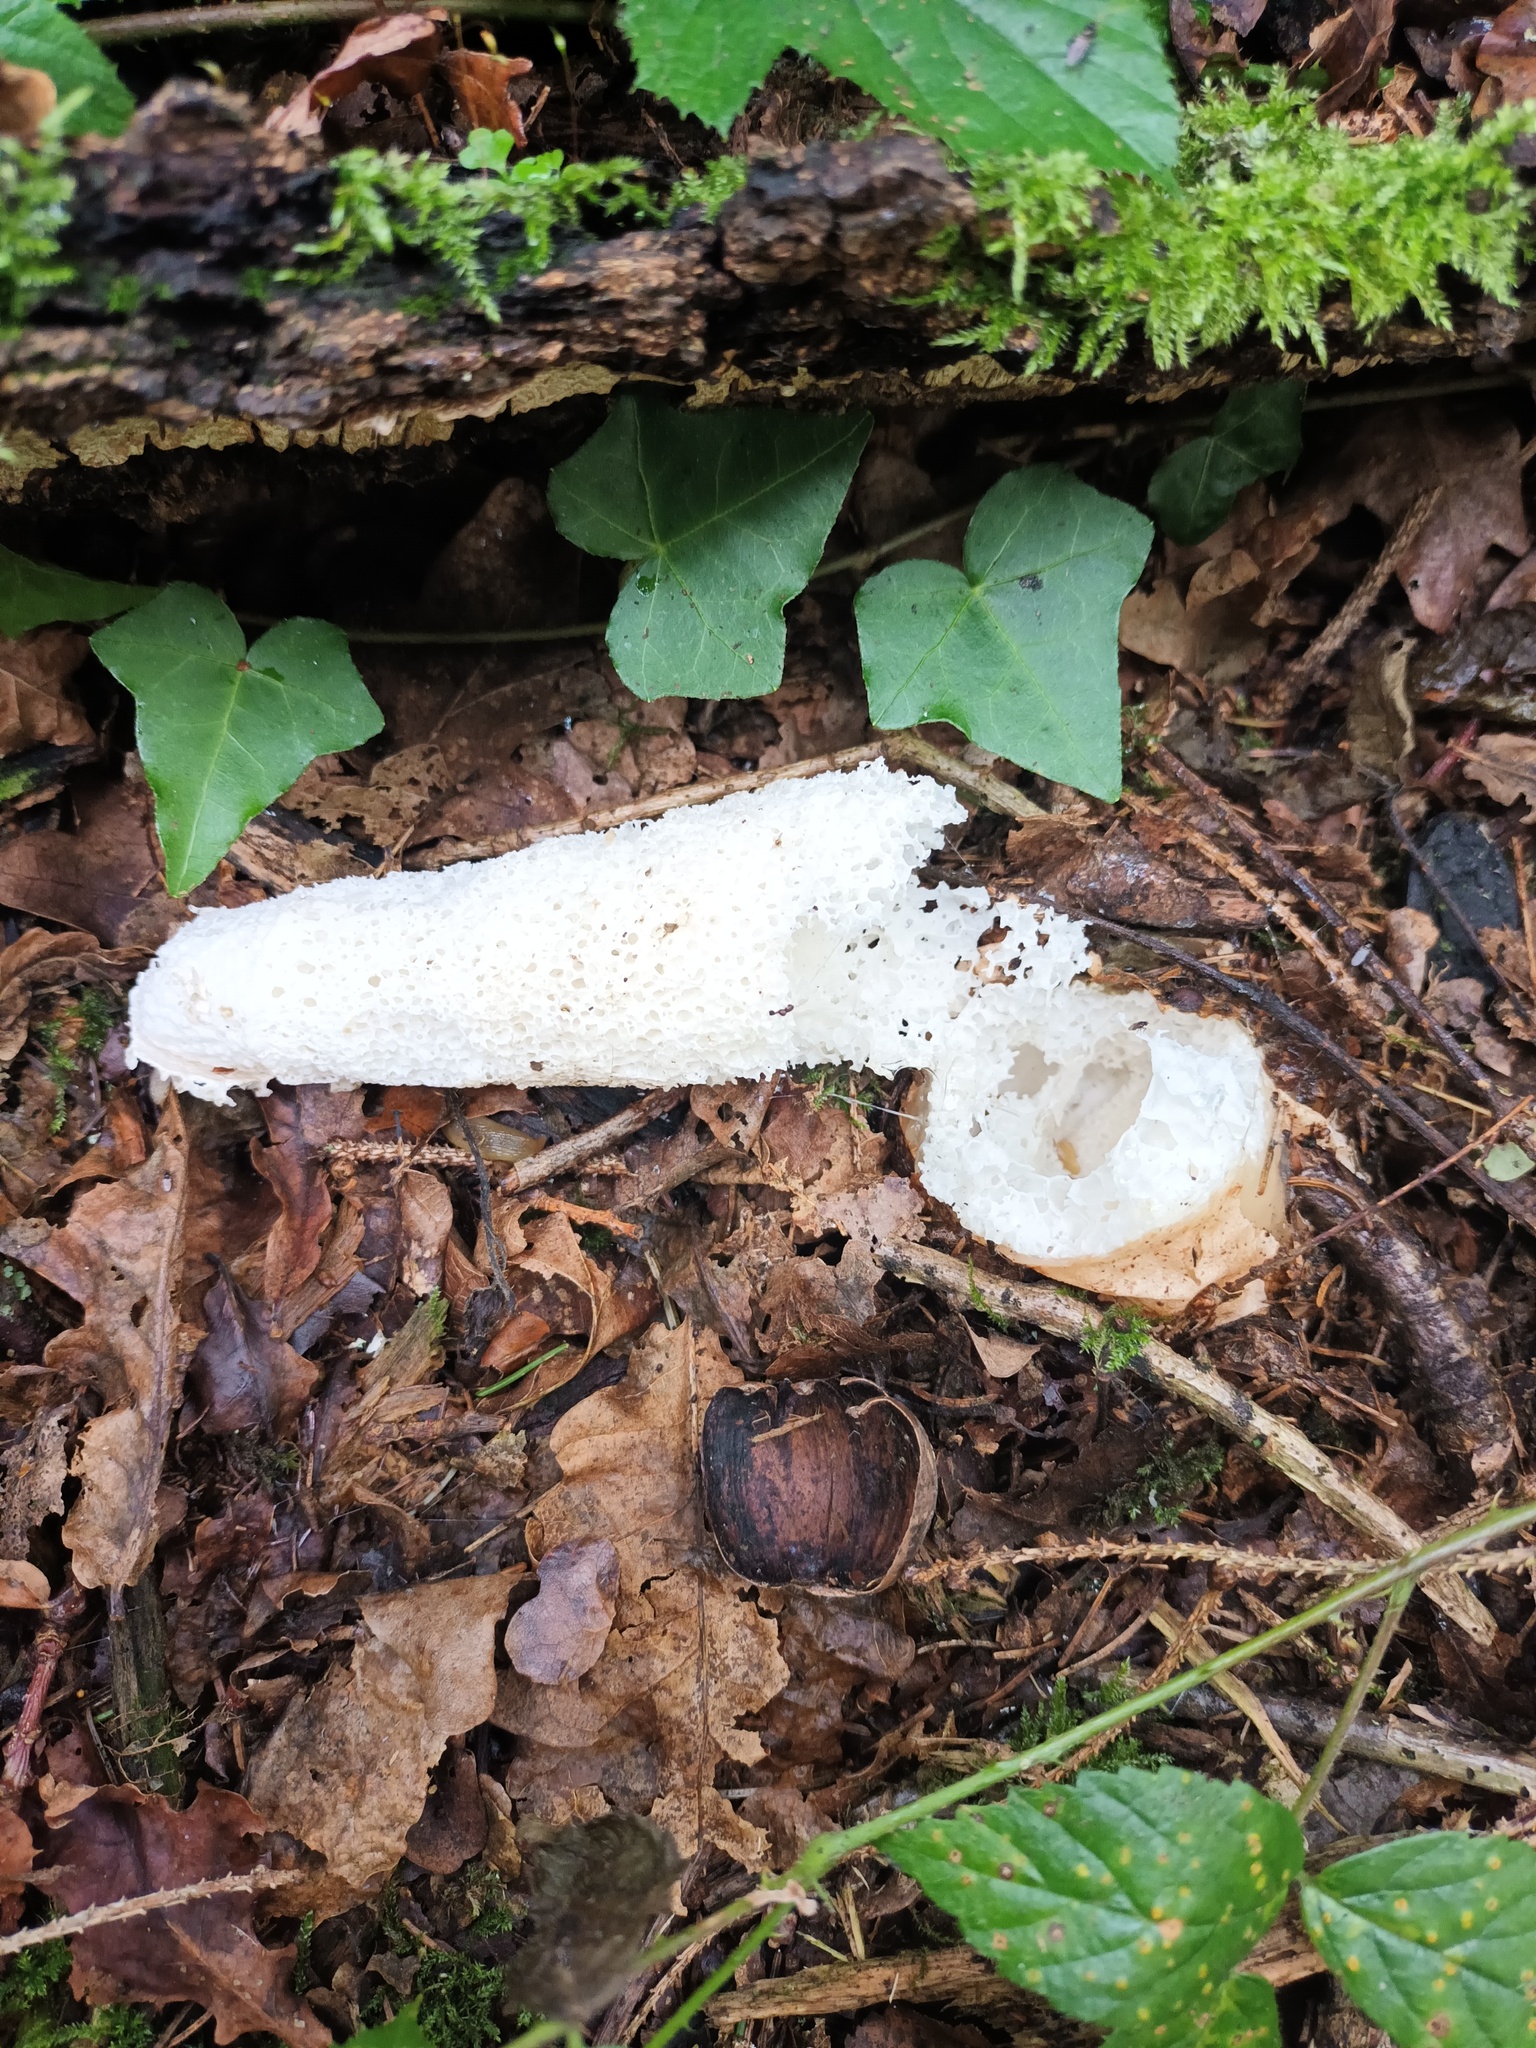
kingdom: Fungi
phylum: Basidiomycota
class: Agaricomycetes
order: Phallales
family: Phallaceae
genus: Phallus
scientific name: Phallus impudicus
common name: Common stinkhorn
